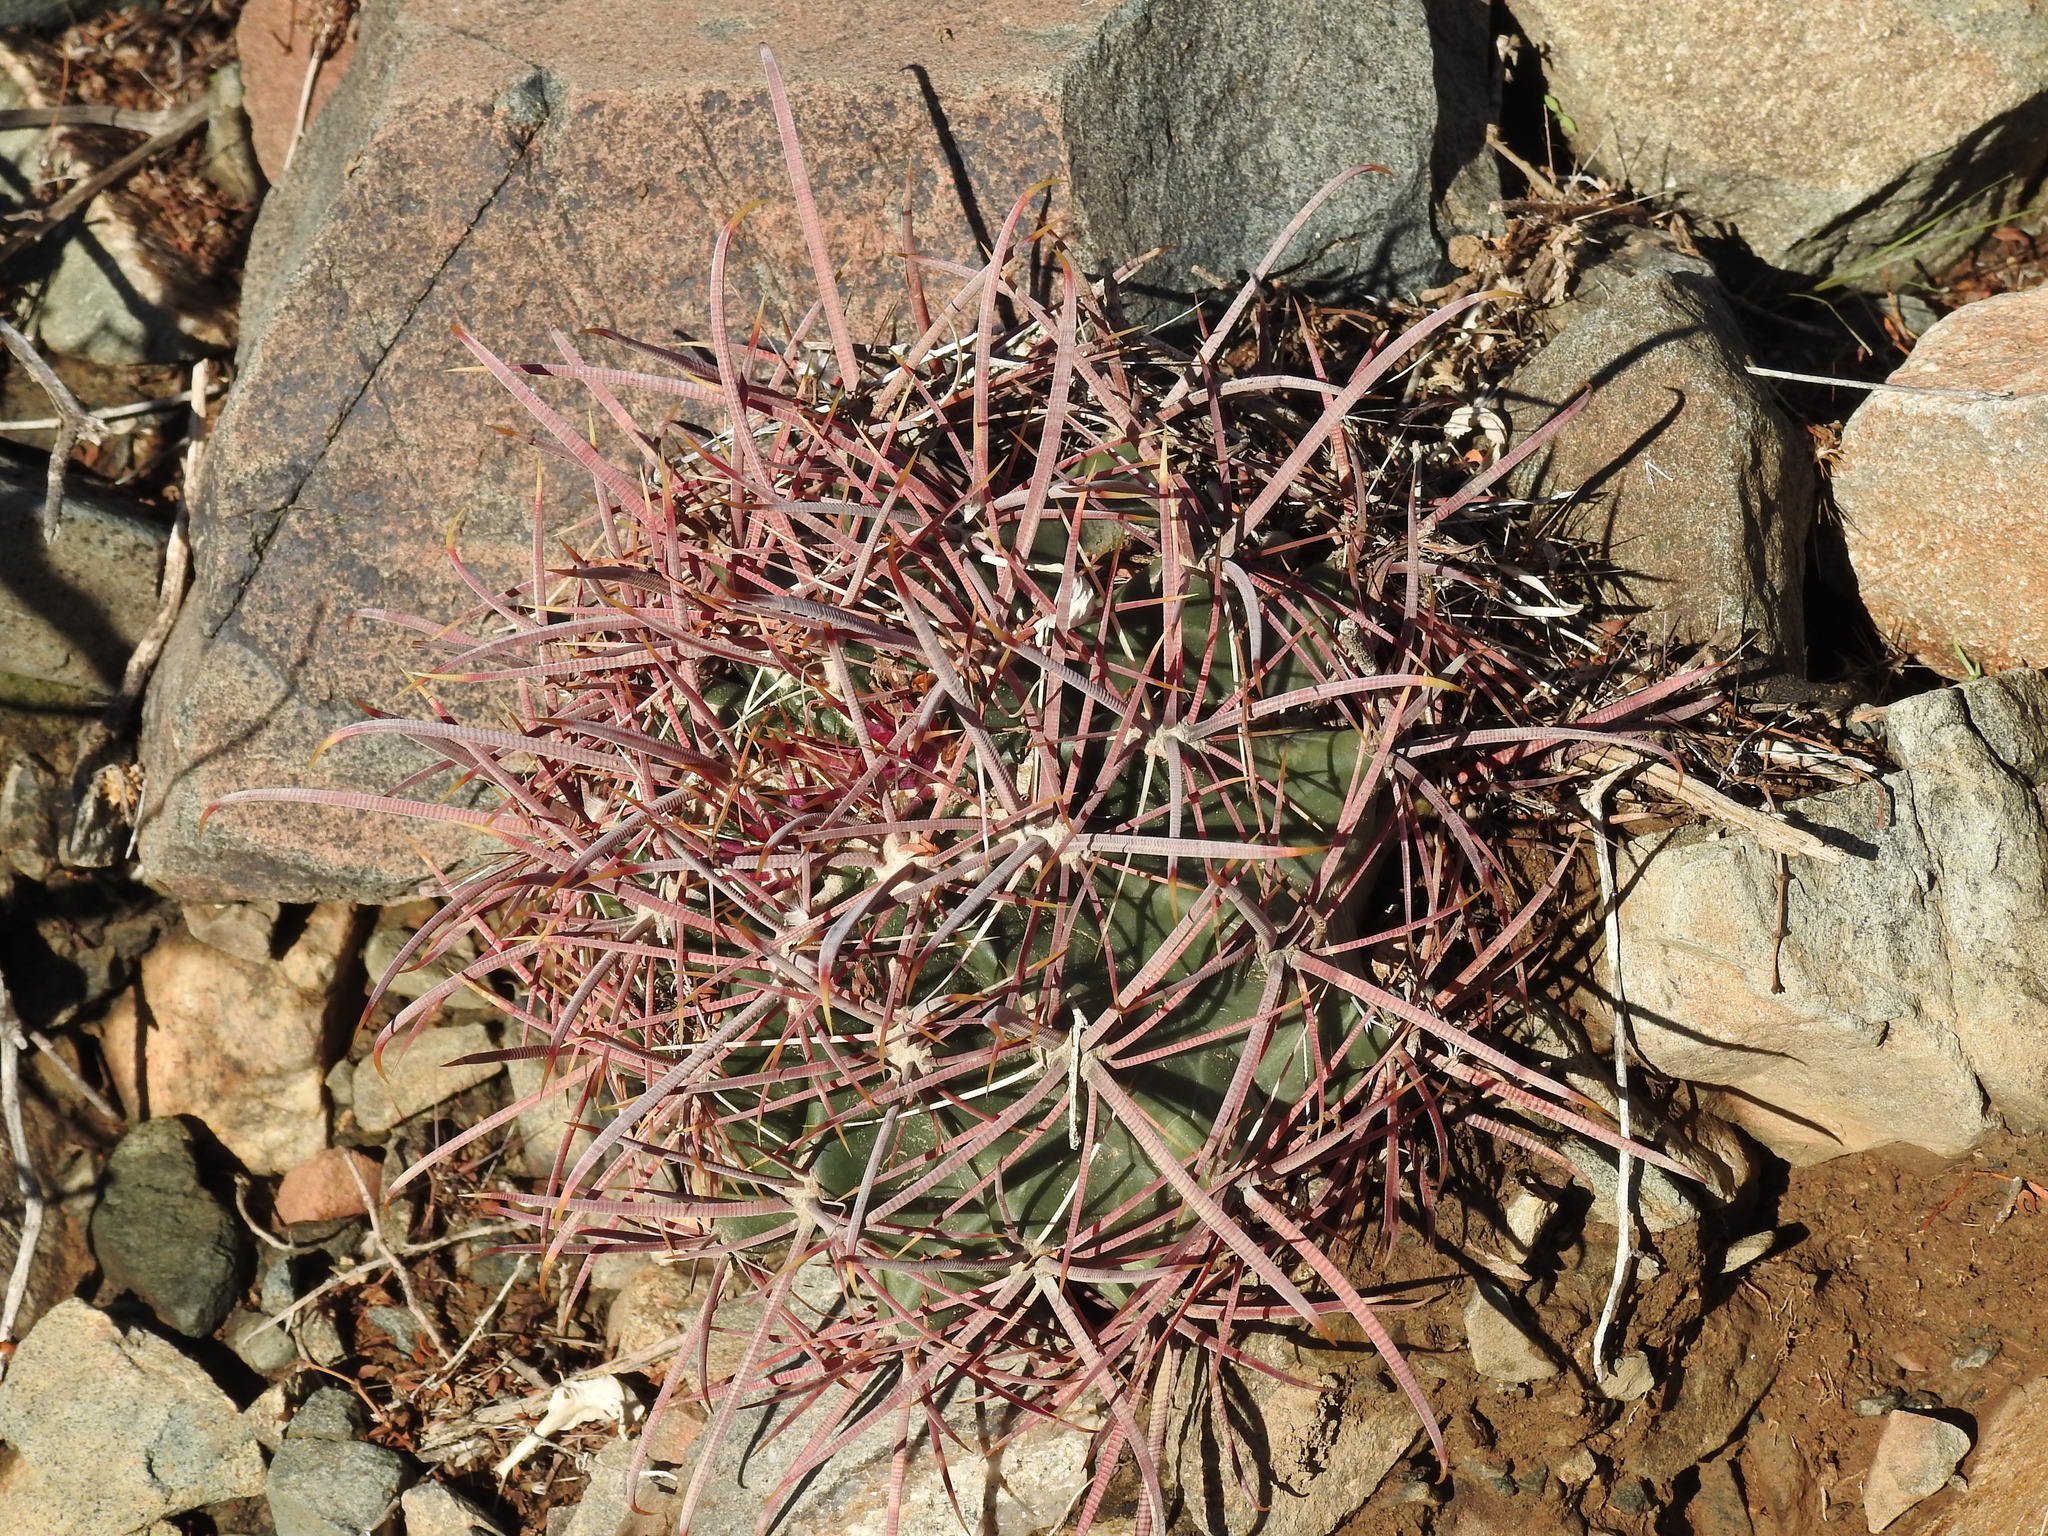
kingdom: Plantae
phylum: Tracheophyta
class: Magnoliopsida
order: Caryophyllales
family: Cactaceae
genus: Ferocactus
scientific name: Ferocactus cylindraceus
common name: California barrel cactus
